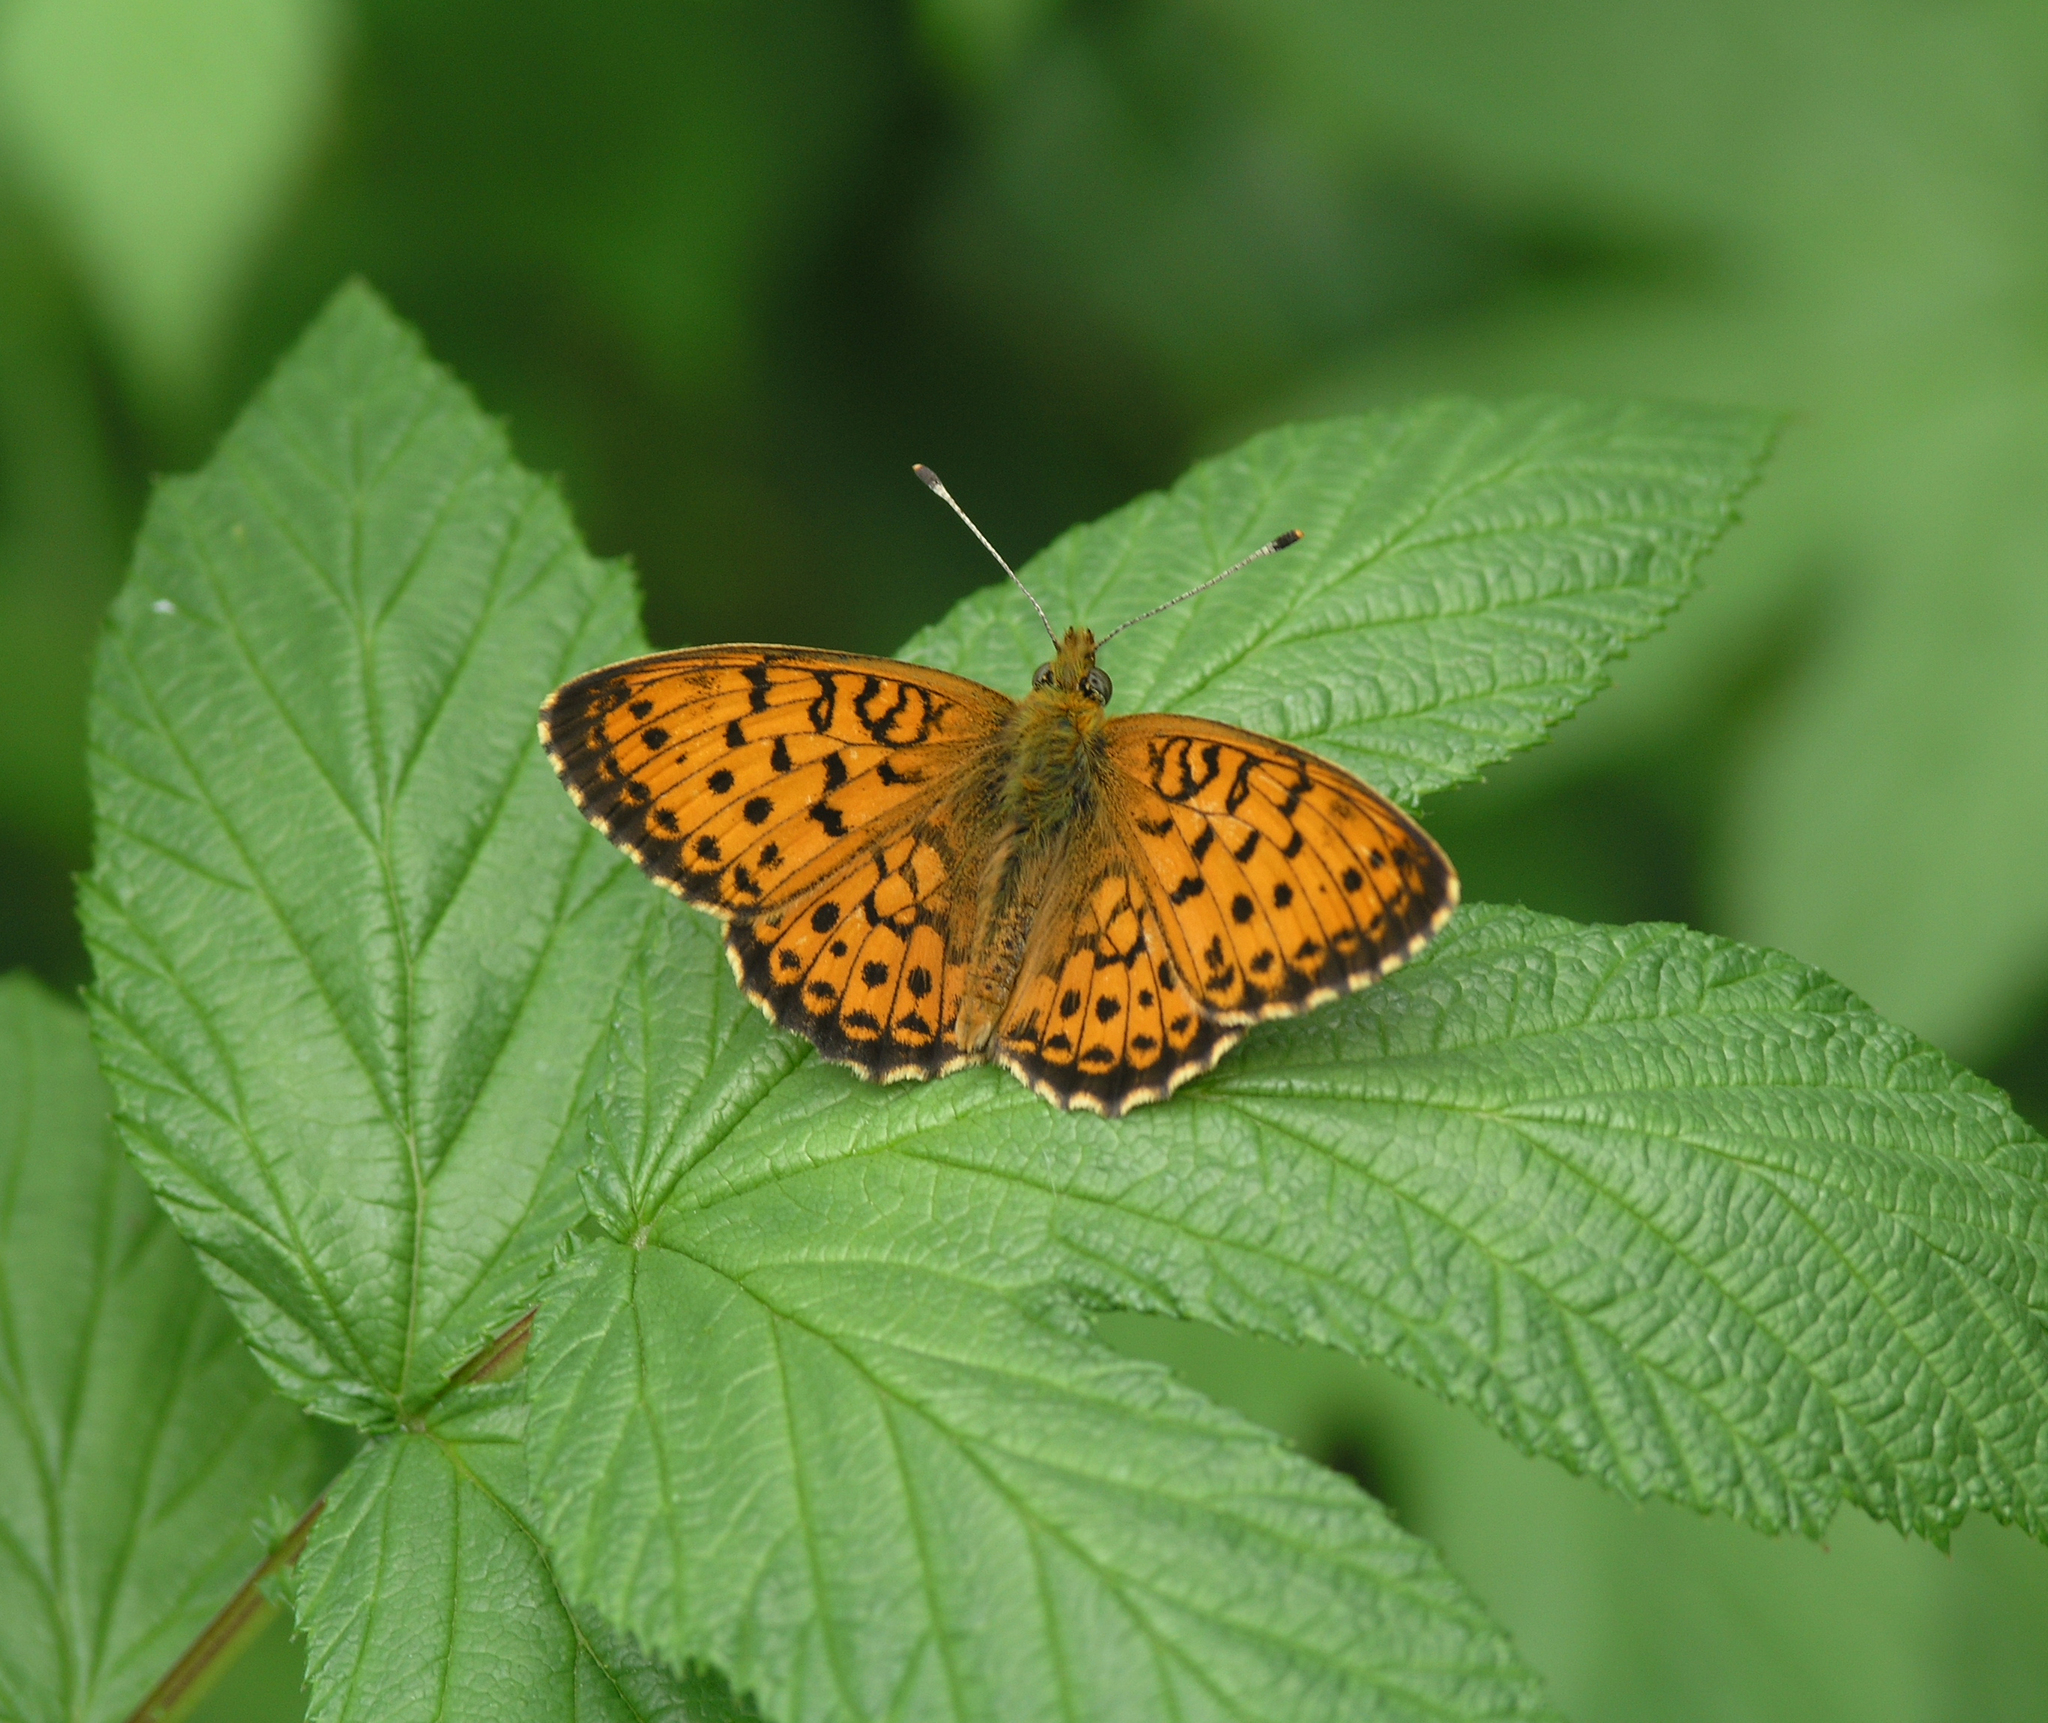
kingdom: Animalia
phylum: Arthropoda
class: Insecta
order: Lepidoptera
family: Nymphalidae
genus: Brenthis
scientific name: Brenthis ino
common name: Lesser marbled fritillary
